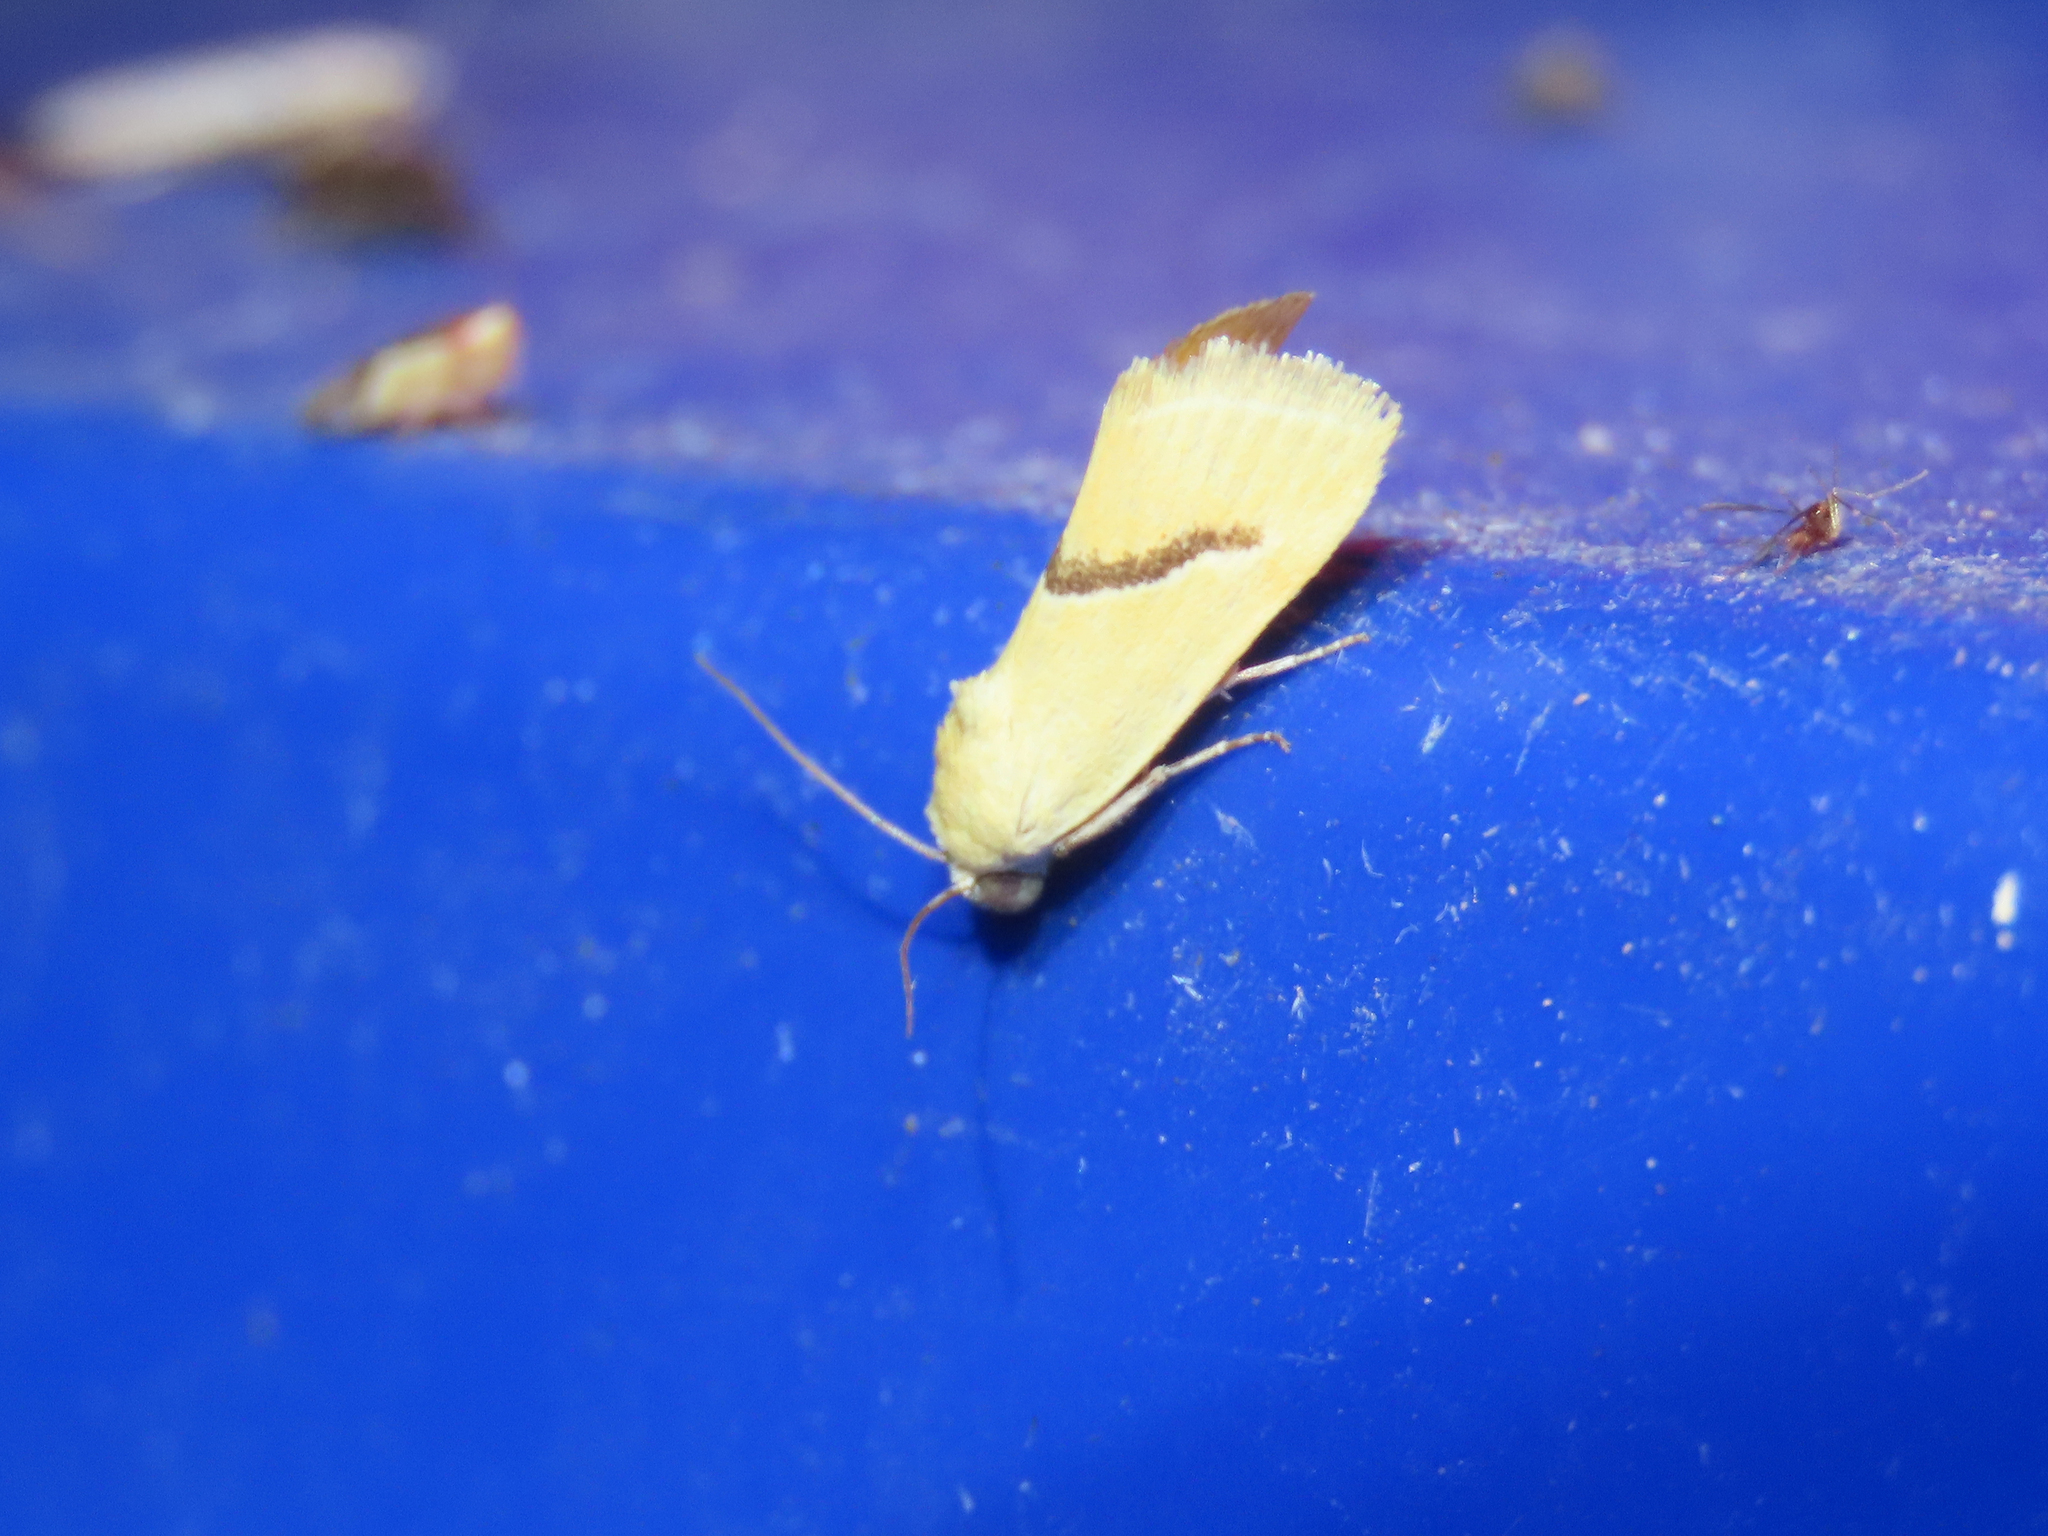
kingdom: Animalia
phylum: Arthropoda
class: Insecta
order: Lepidoptera
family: Noctuidae
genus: Ponometia
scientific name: Ponometia venustula
